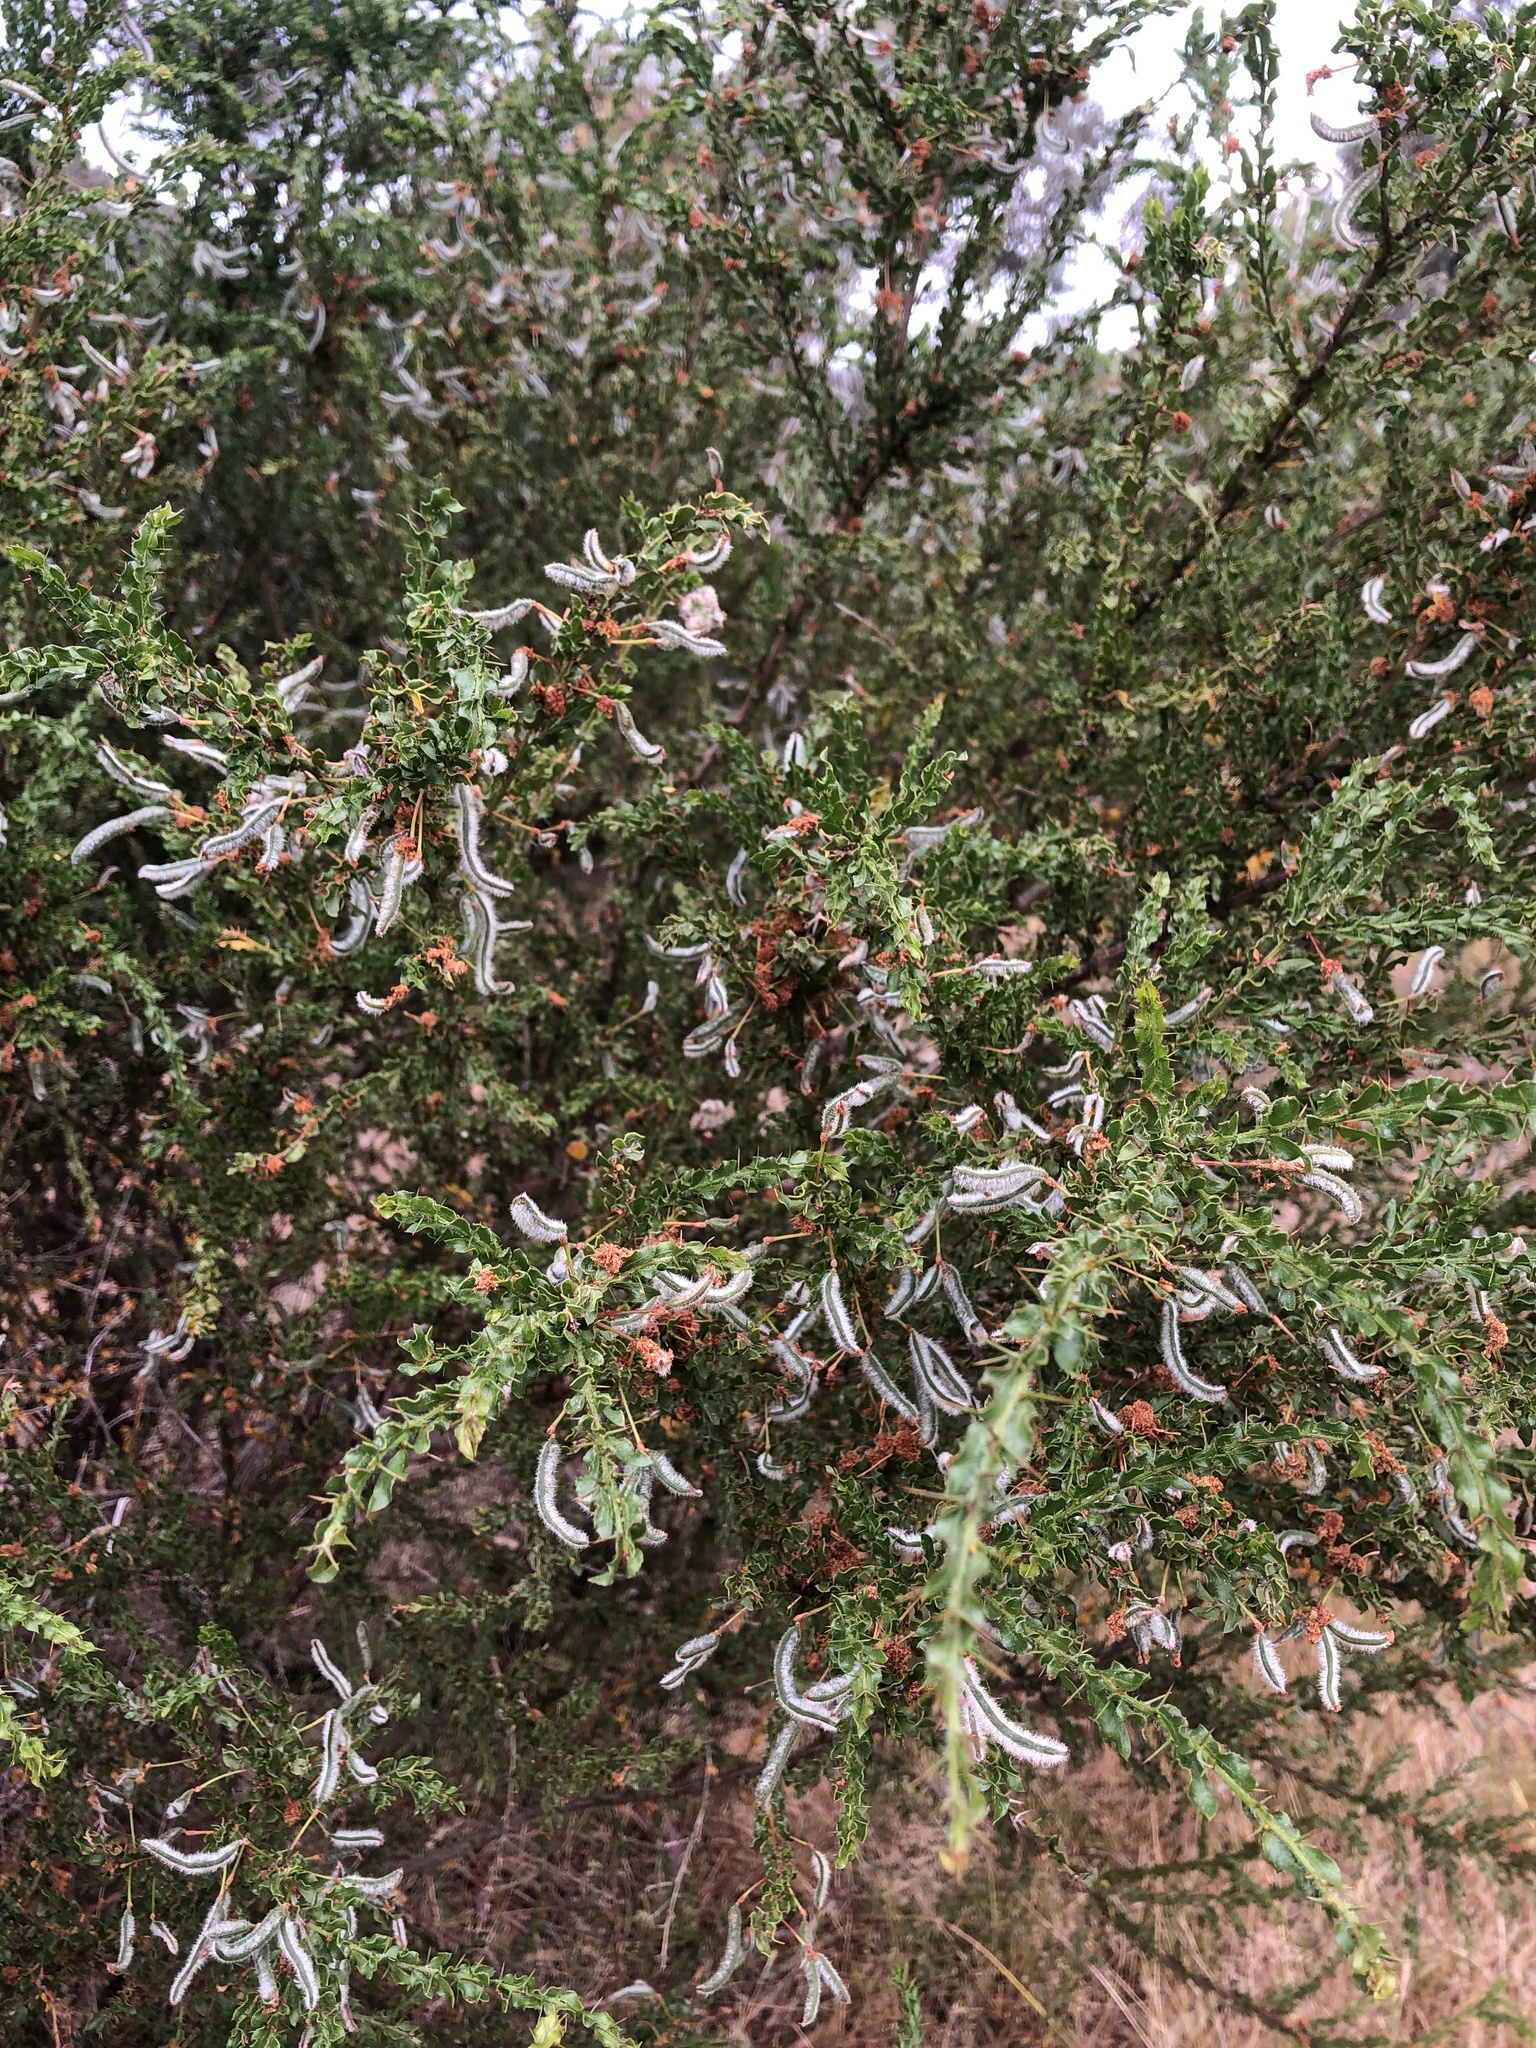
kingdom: Plantae
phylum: Tracheophyta
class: Magnoliopsida
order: Fabales
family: Fabaceae
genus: Acacia
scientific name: Acacia paradoxa
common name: Paradox acacia
